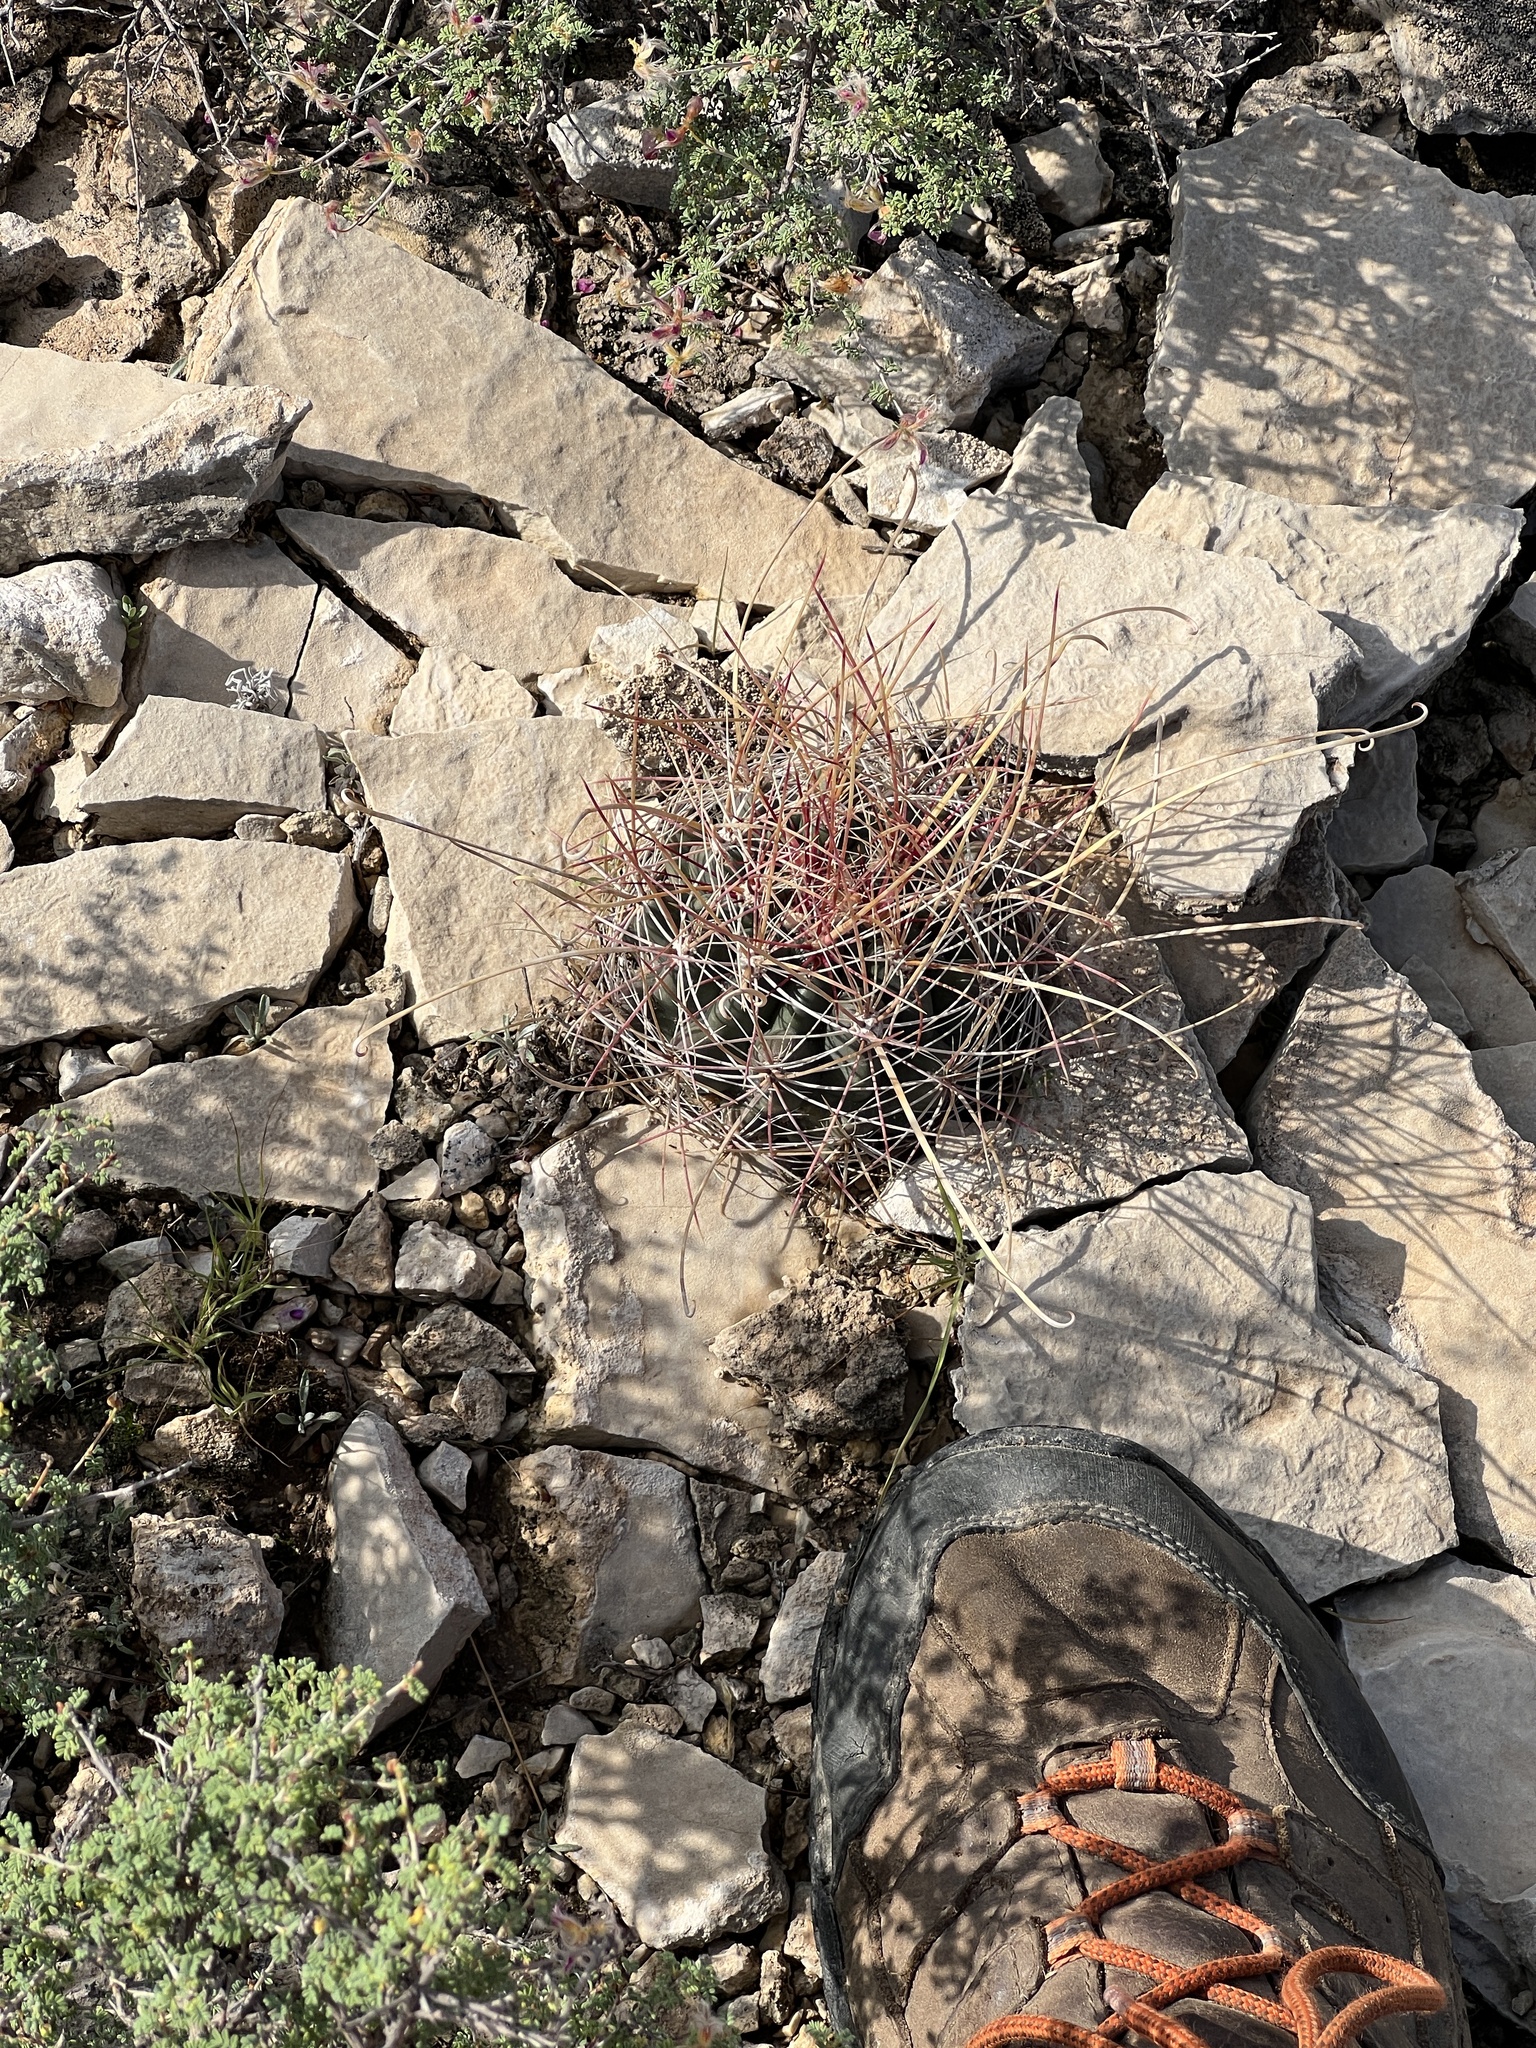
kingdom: Plantae
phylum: Tracheophyta
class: Magnoliopsida
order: Caryophyllales
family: Cactaceae
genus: Bisnaga
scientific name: Bisnaga hamatacantha
